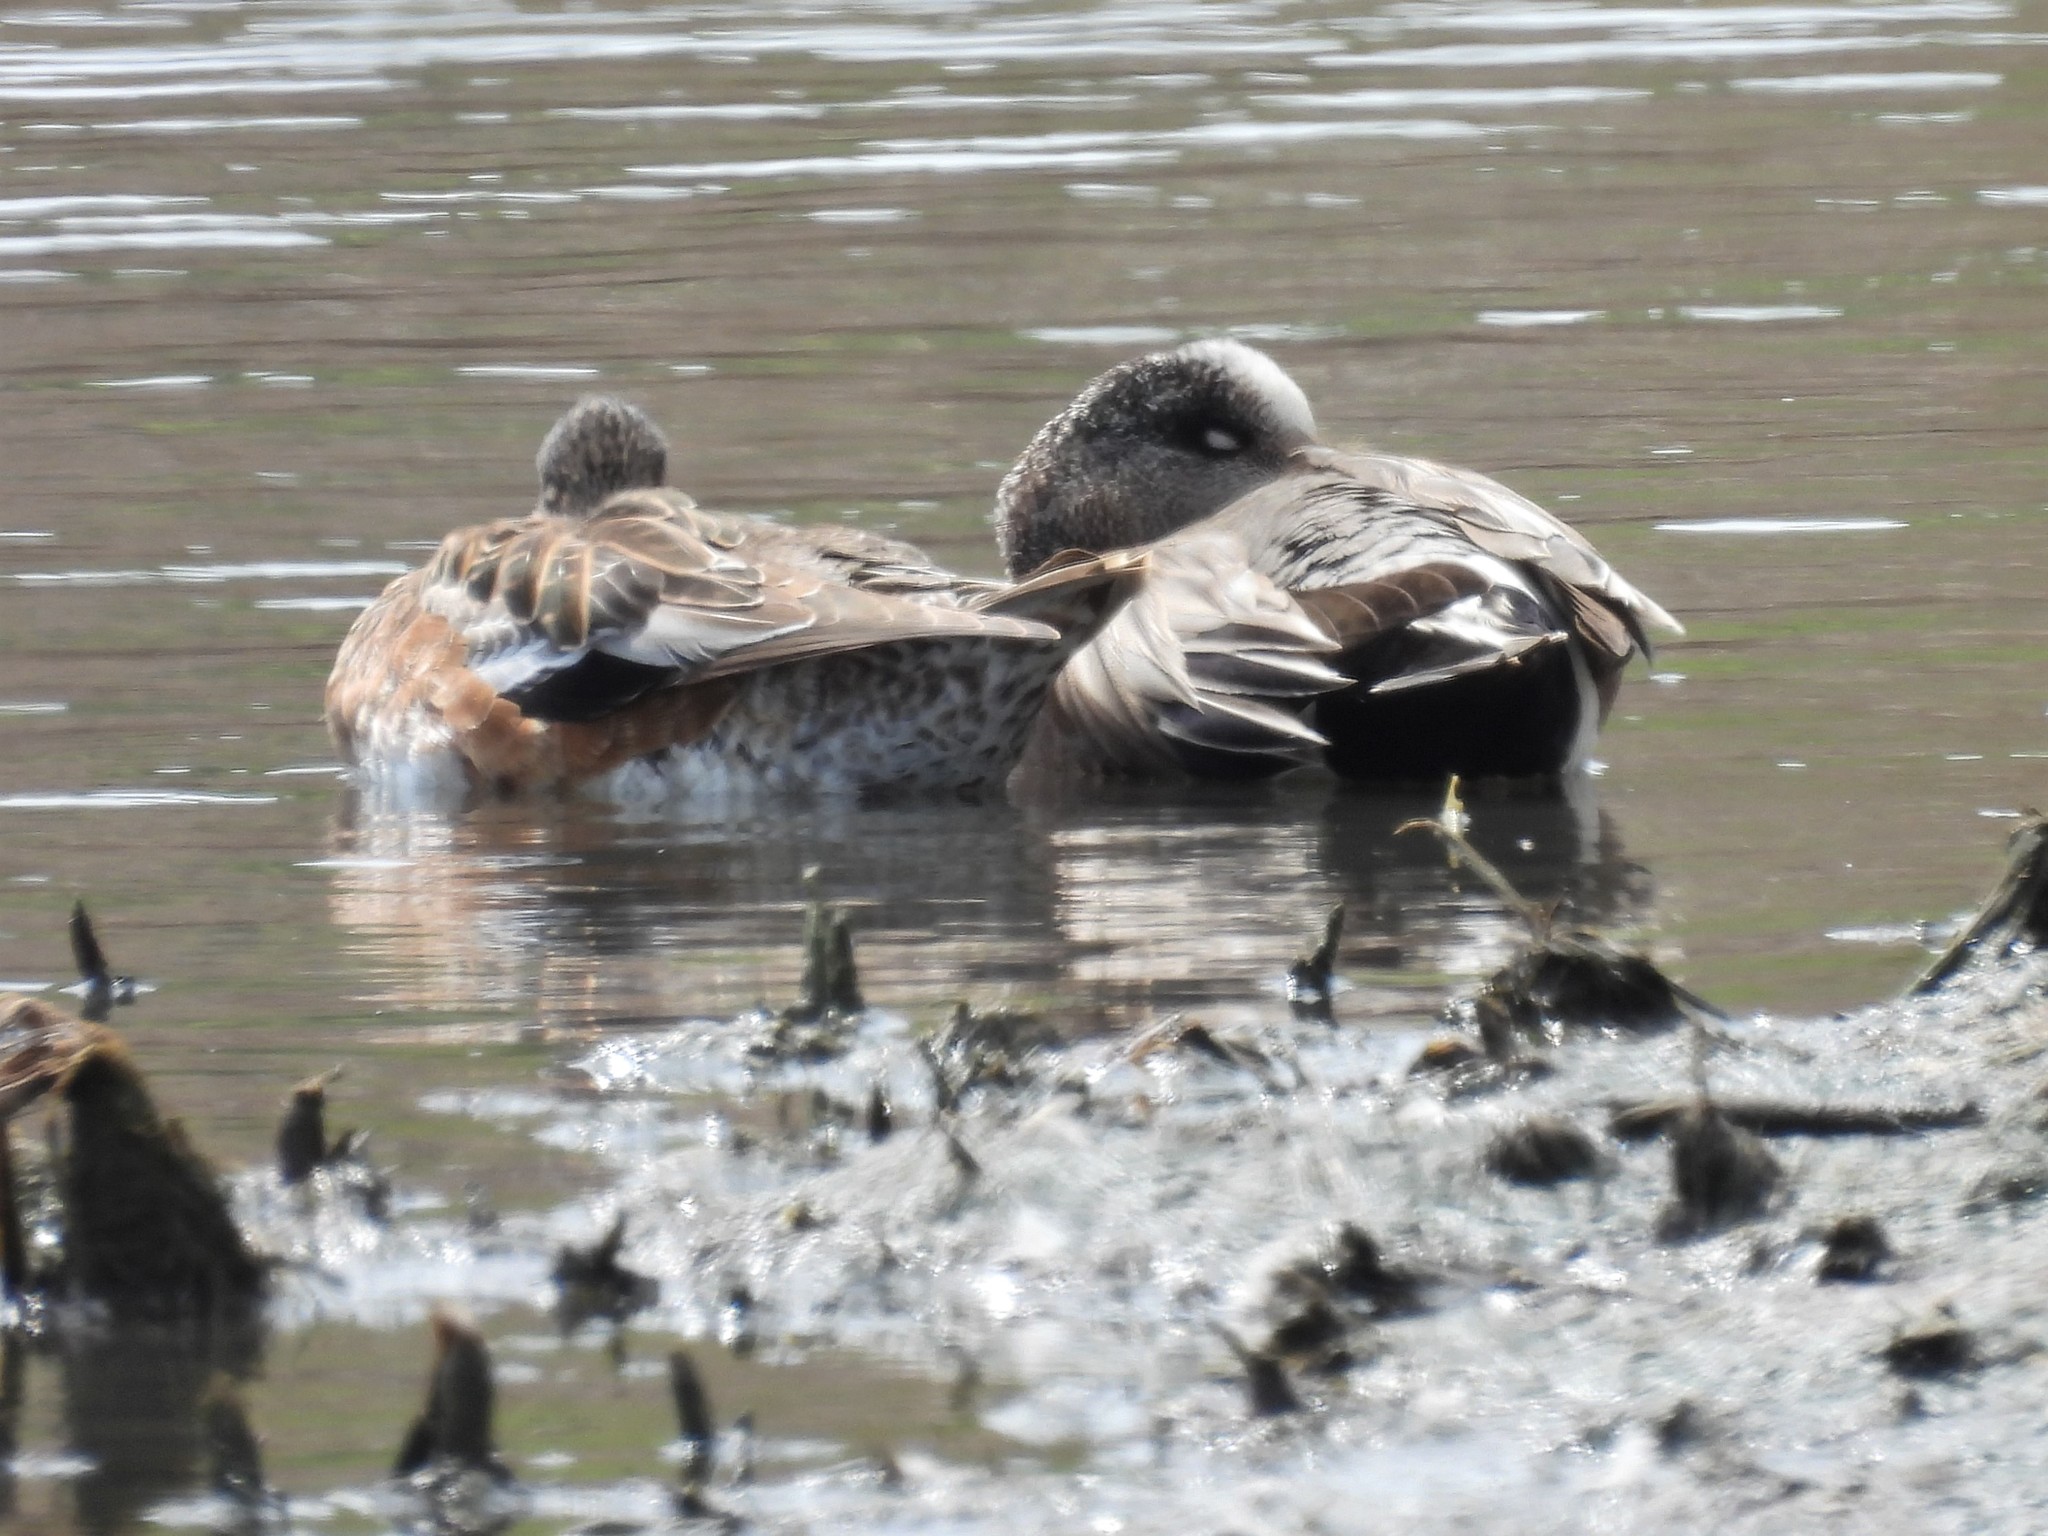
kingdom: Animalia
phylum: Chordata
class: Aves
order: Anseriformes
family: Anatidae
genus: Mareca
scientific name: Mareca americana
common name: American wigeon
